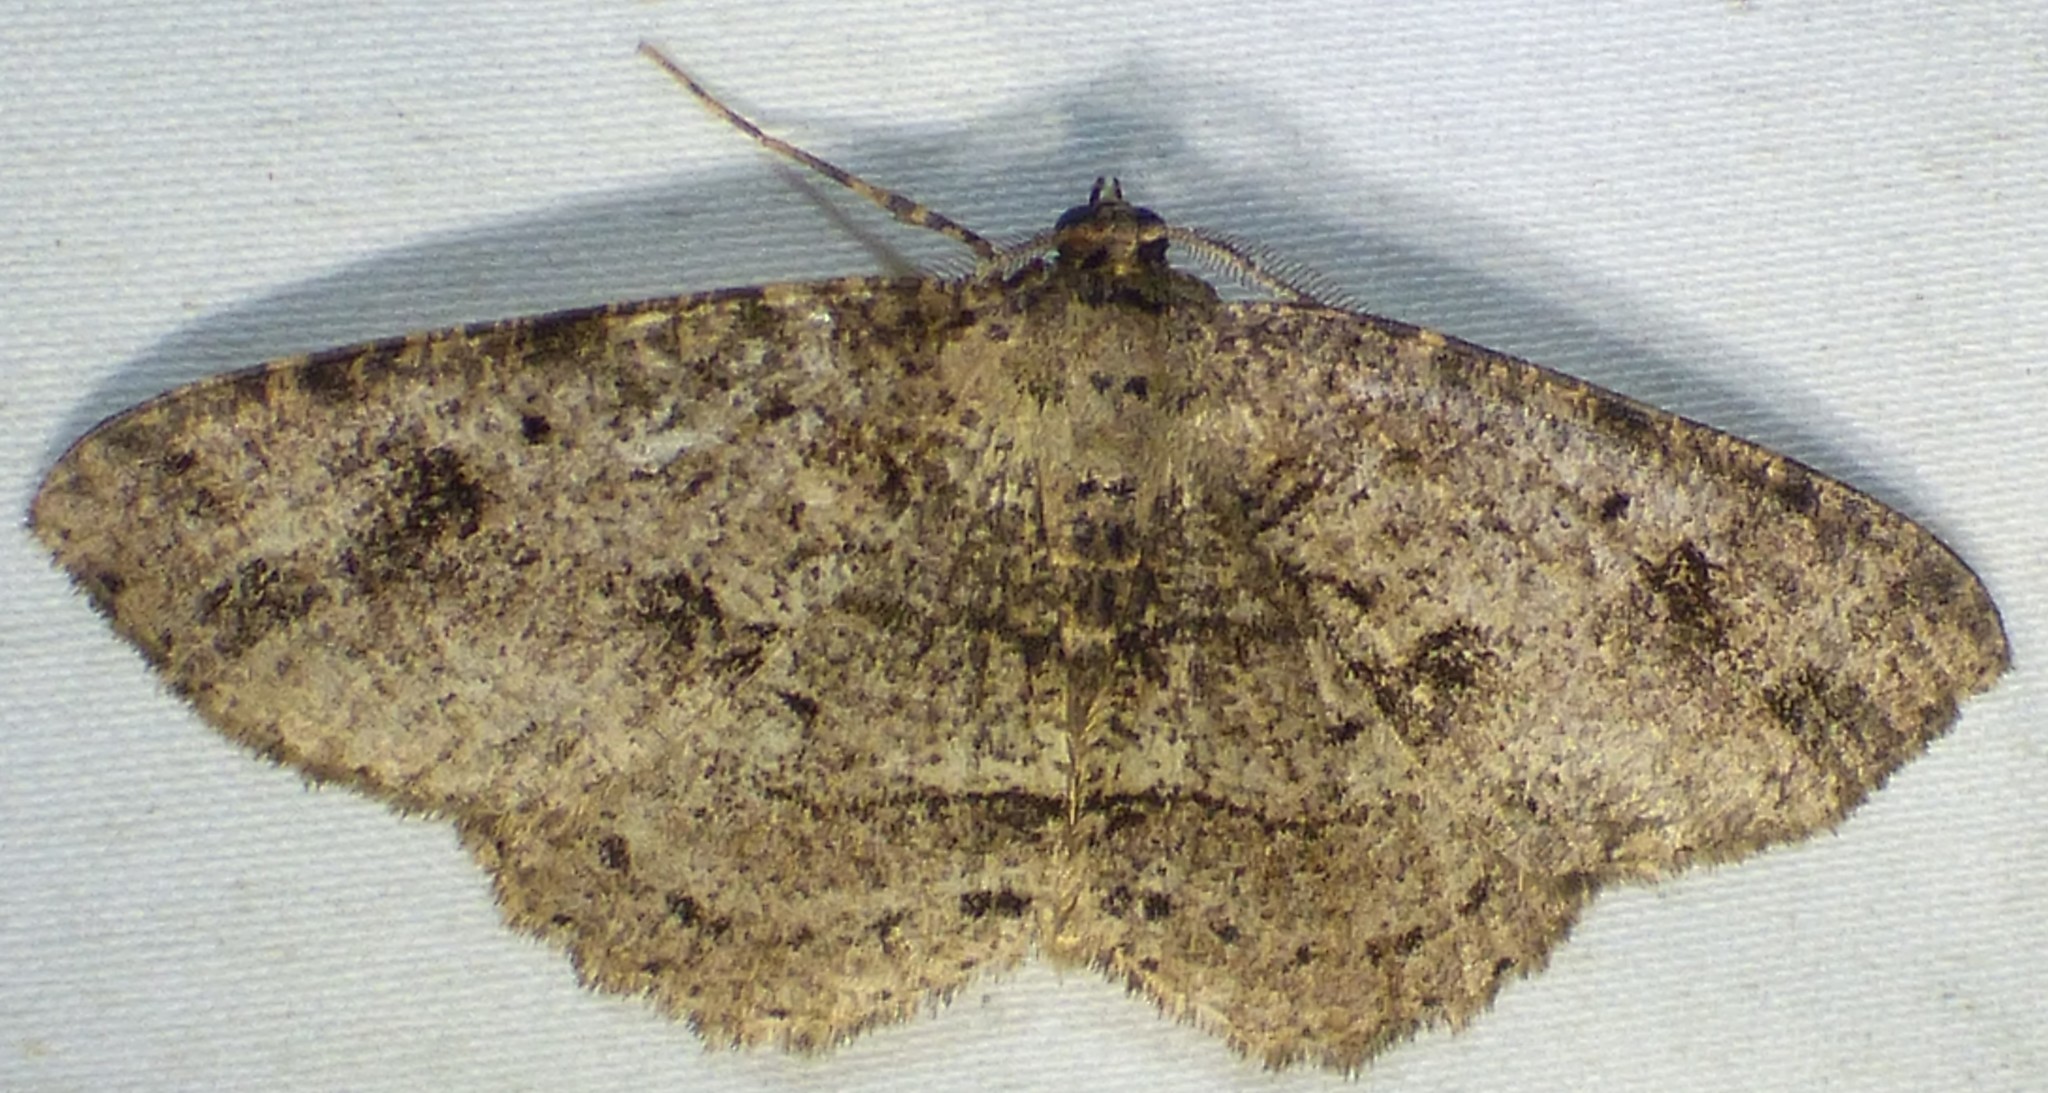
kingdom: Animalia
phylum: Arthropoda
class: Insecta
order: Lepidoptera
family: Geometridae
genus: Melanolophia
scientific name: Melanolophia canadaria
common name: Canadian melanolophia
